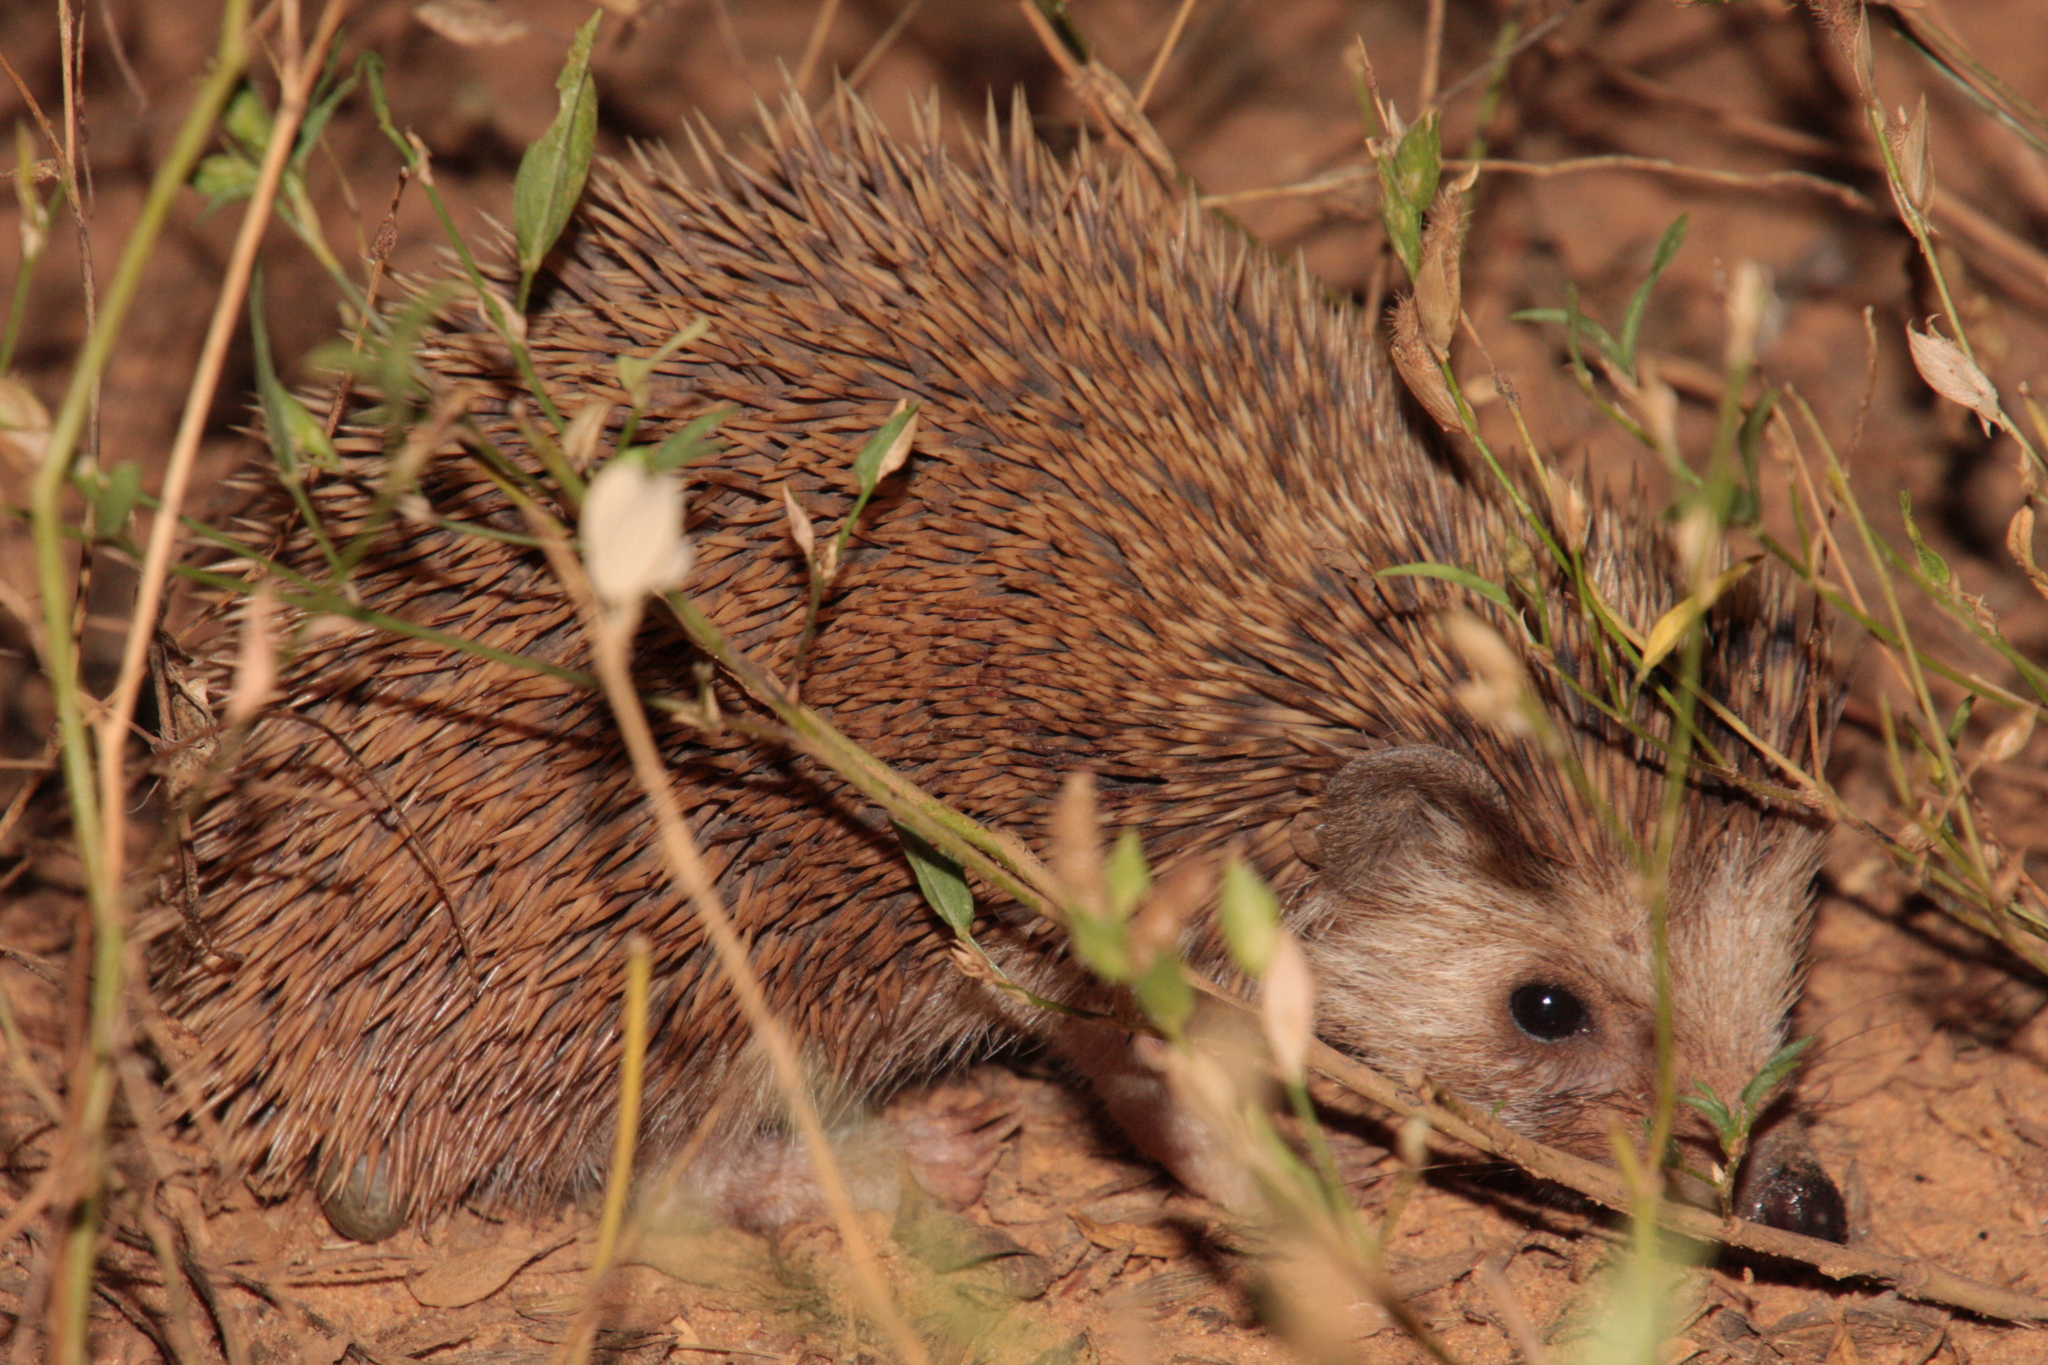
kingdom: Animalia
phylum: Chordata
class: Mammalia
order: Erinaceomorpha
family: Erinaceidae
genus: Atelerix
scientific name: Atelerix albiventris
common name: Four-toed hedgehog
